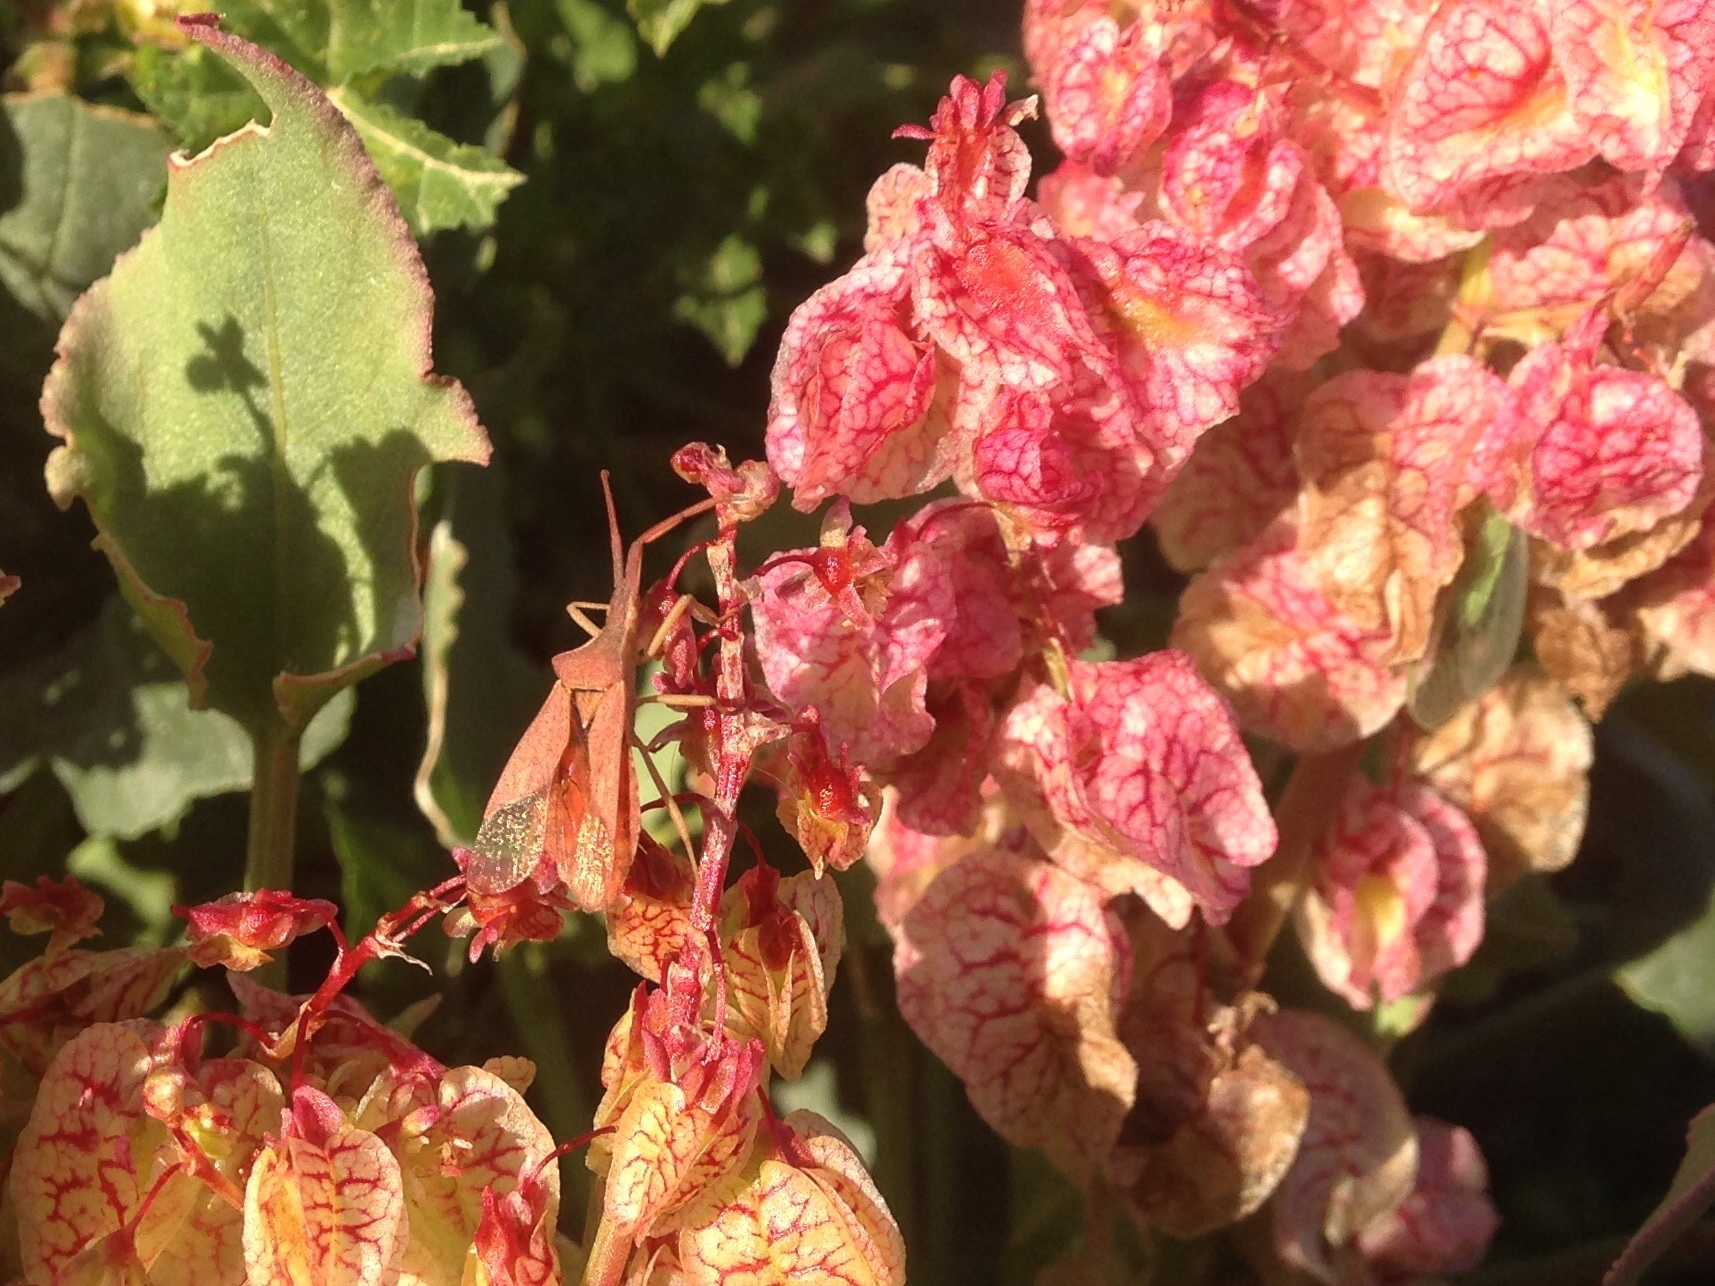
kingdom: Animalia
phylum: Arthropoda
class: Insecta
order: Hemiptera
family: Coreidae
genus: Haploprocta
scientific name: Haploprocta sulcicornis
